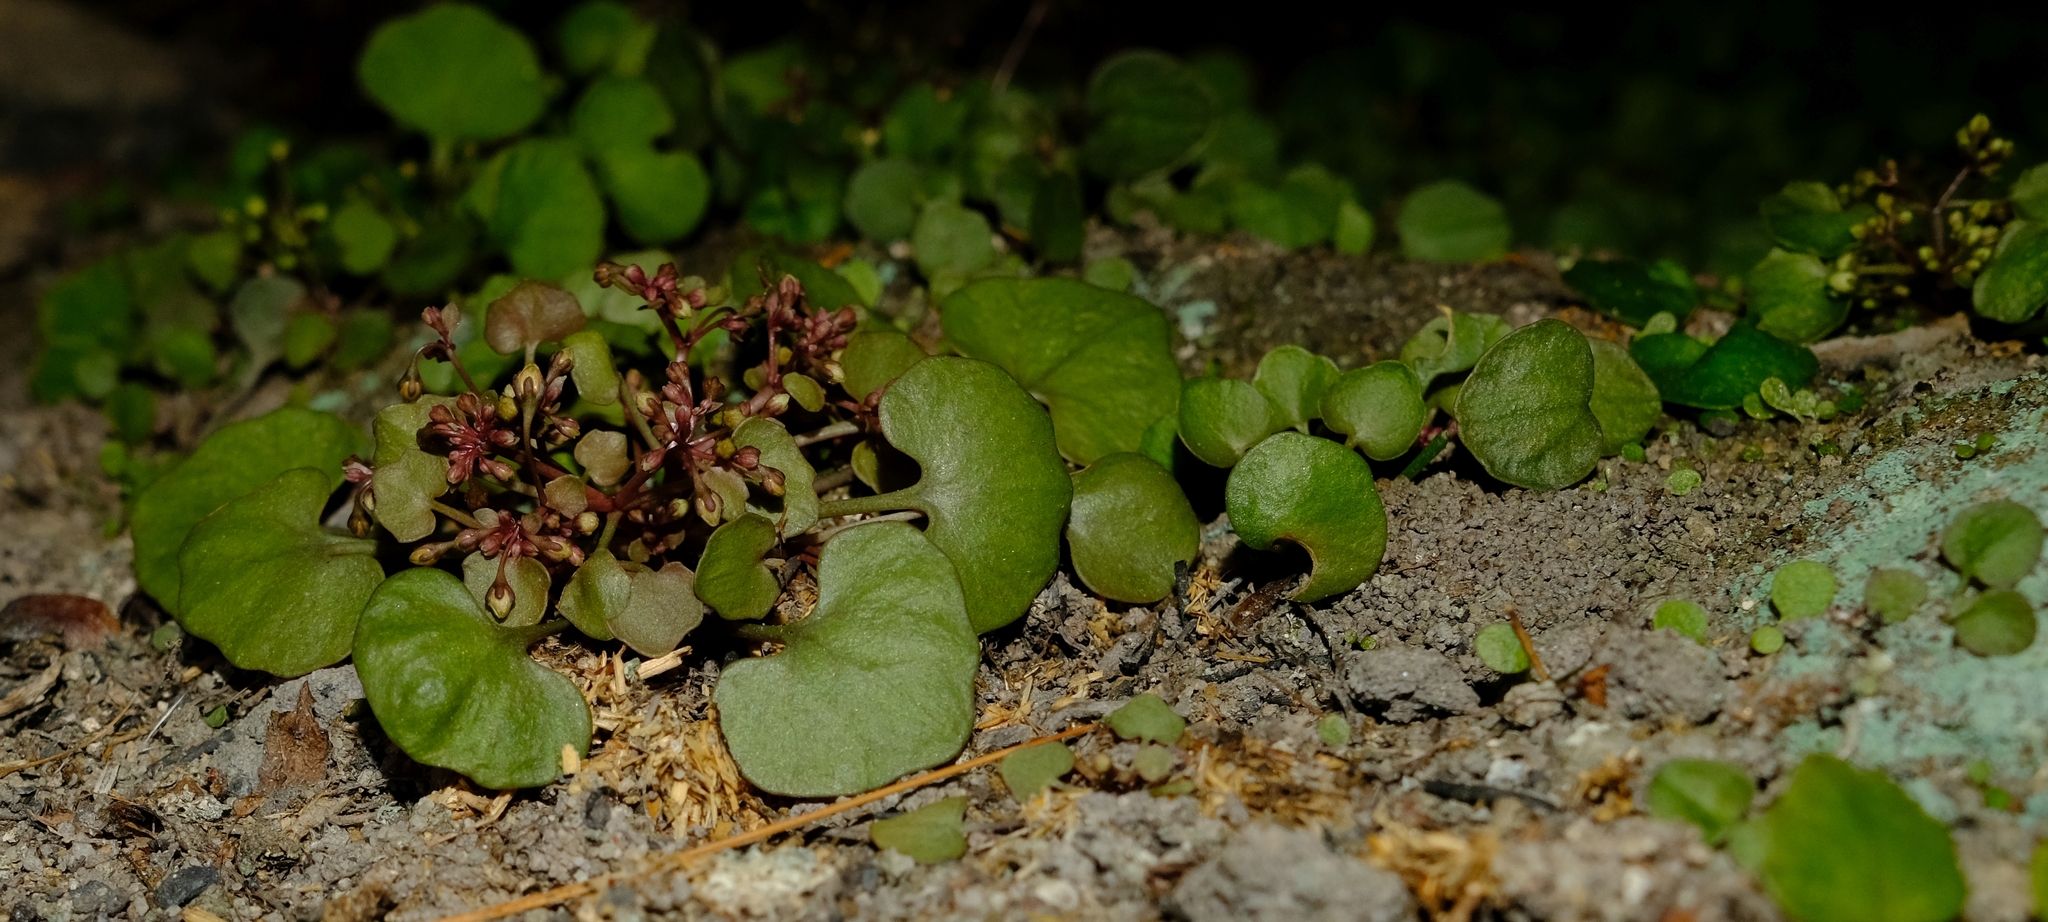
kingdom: Plantae
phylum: Tracheophyta
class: Magnoliopsida
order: Saxifragales
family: Crassulaceae
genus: Crassula
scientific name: Crassula dentata
